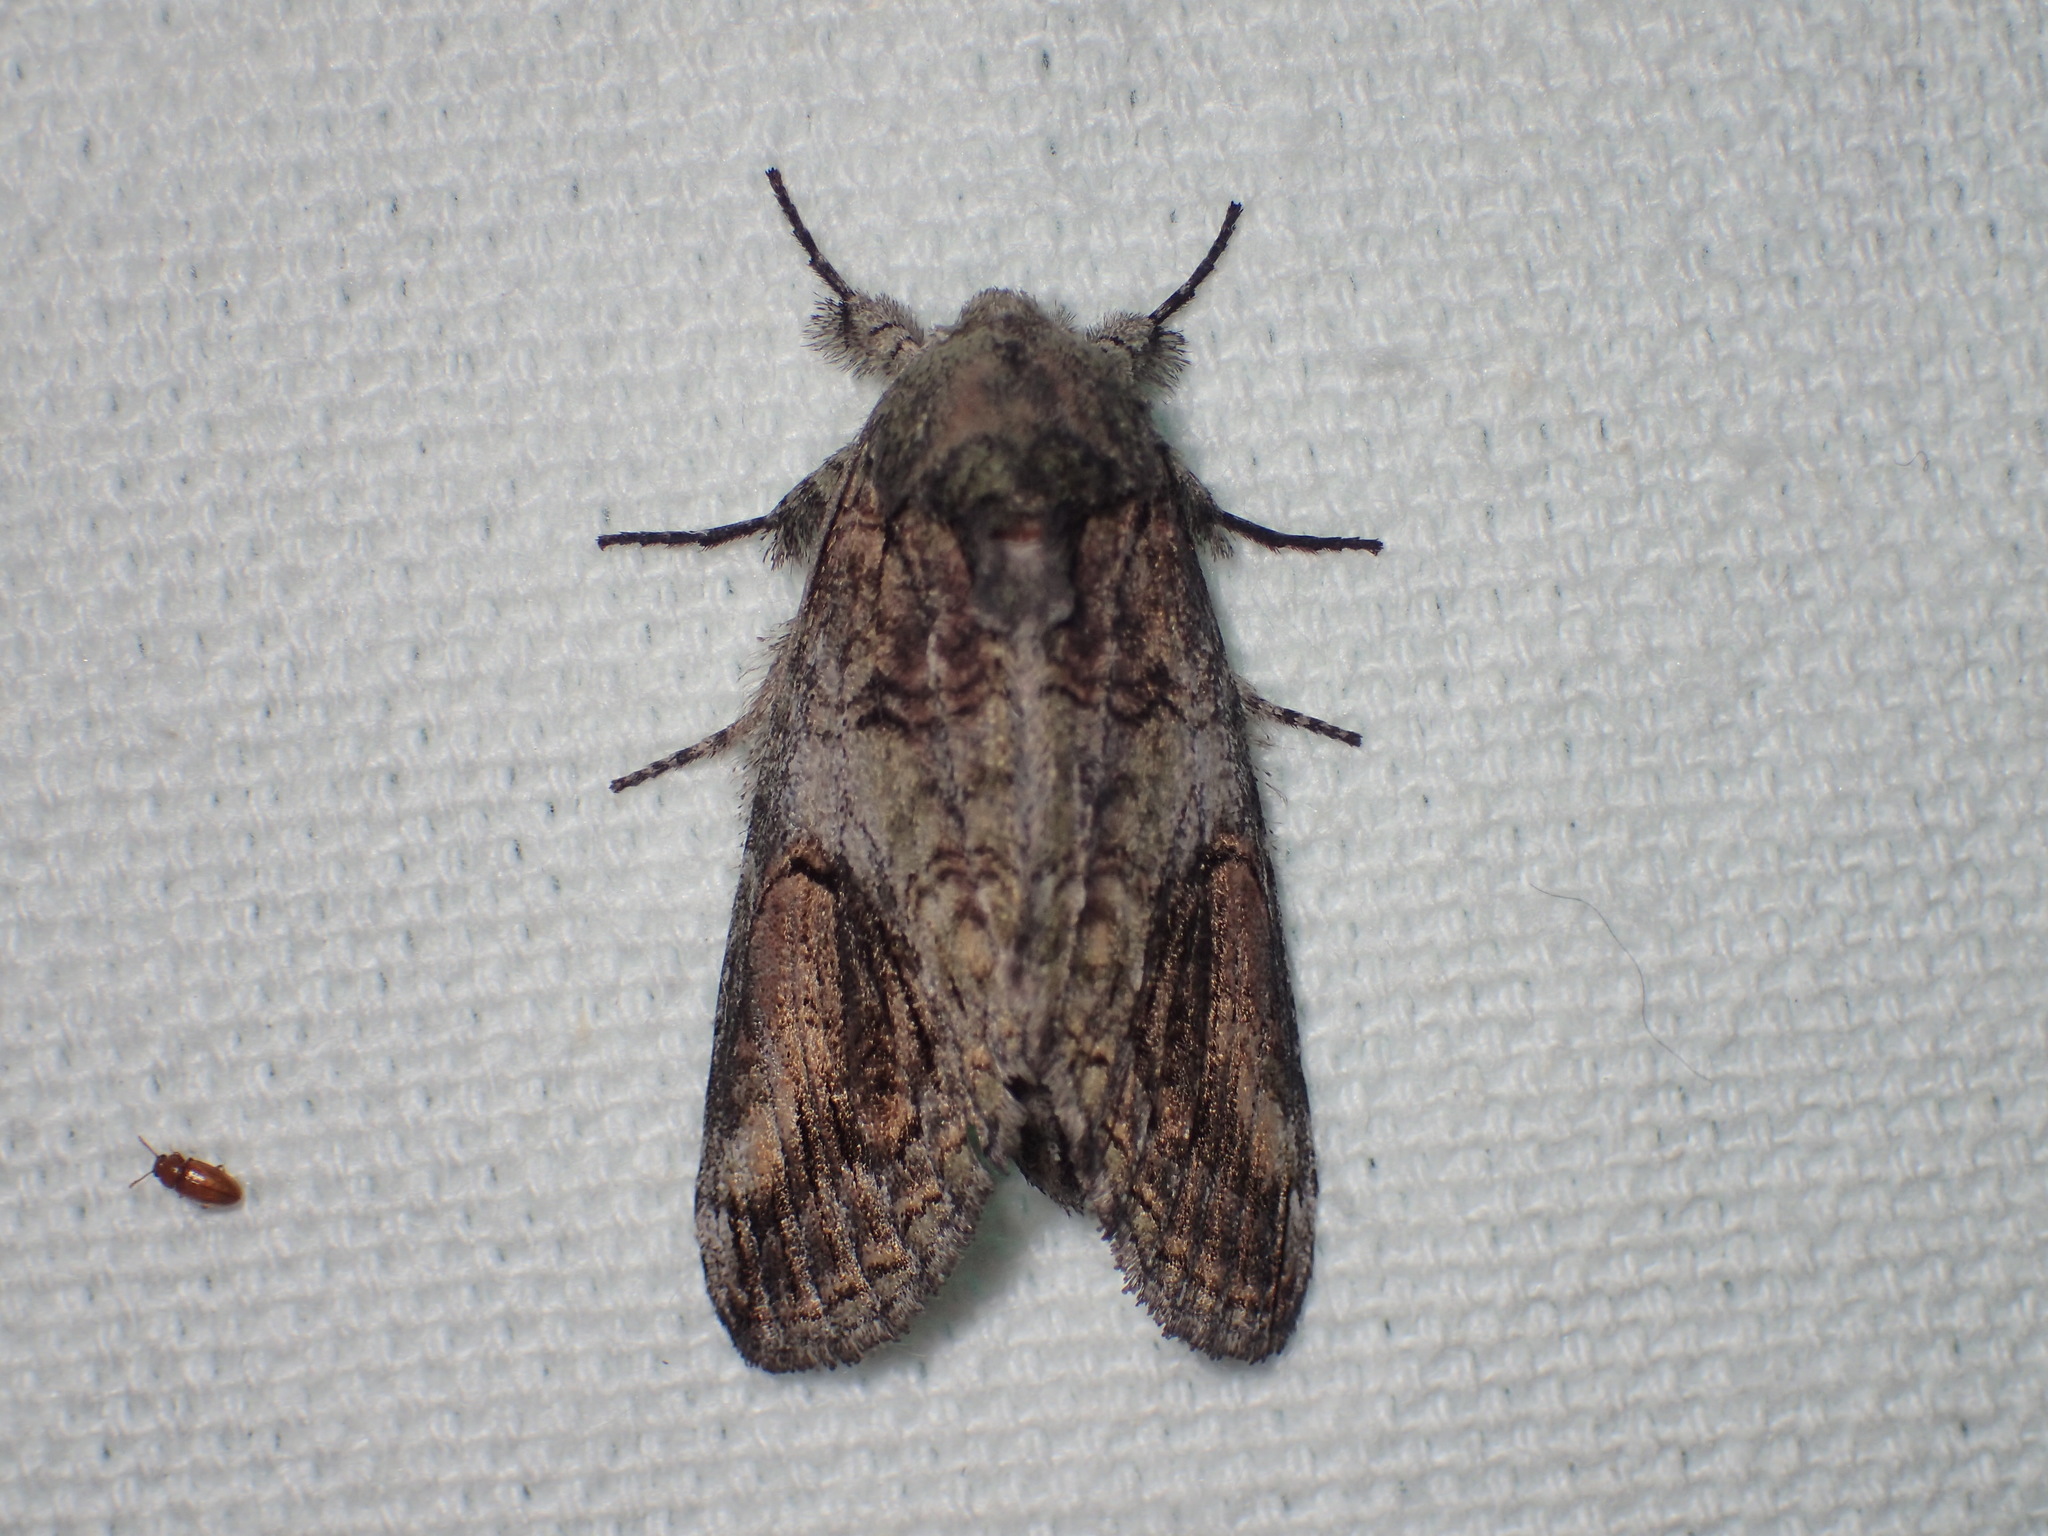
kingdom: Animalia
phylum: Arthropoda
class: Insecta
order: Lepidoptera
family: Notodontidae
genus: Heterocampa
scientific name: Heterocampa obliqua
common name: Oblique heterocampa
